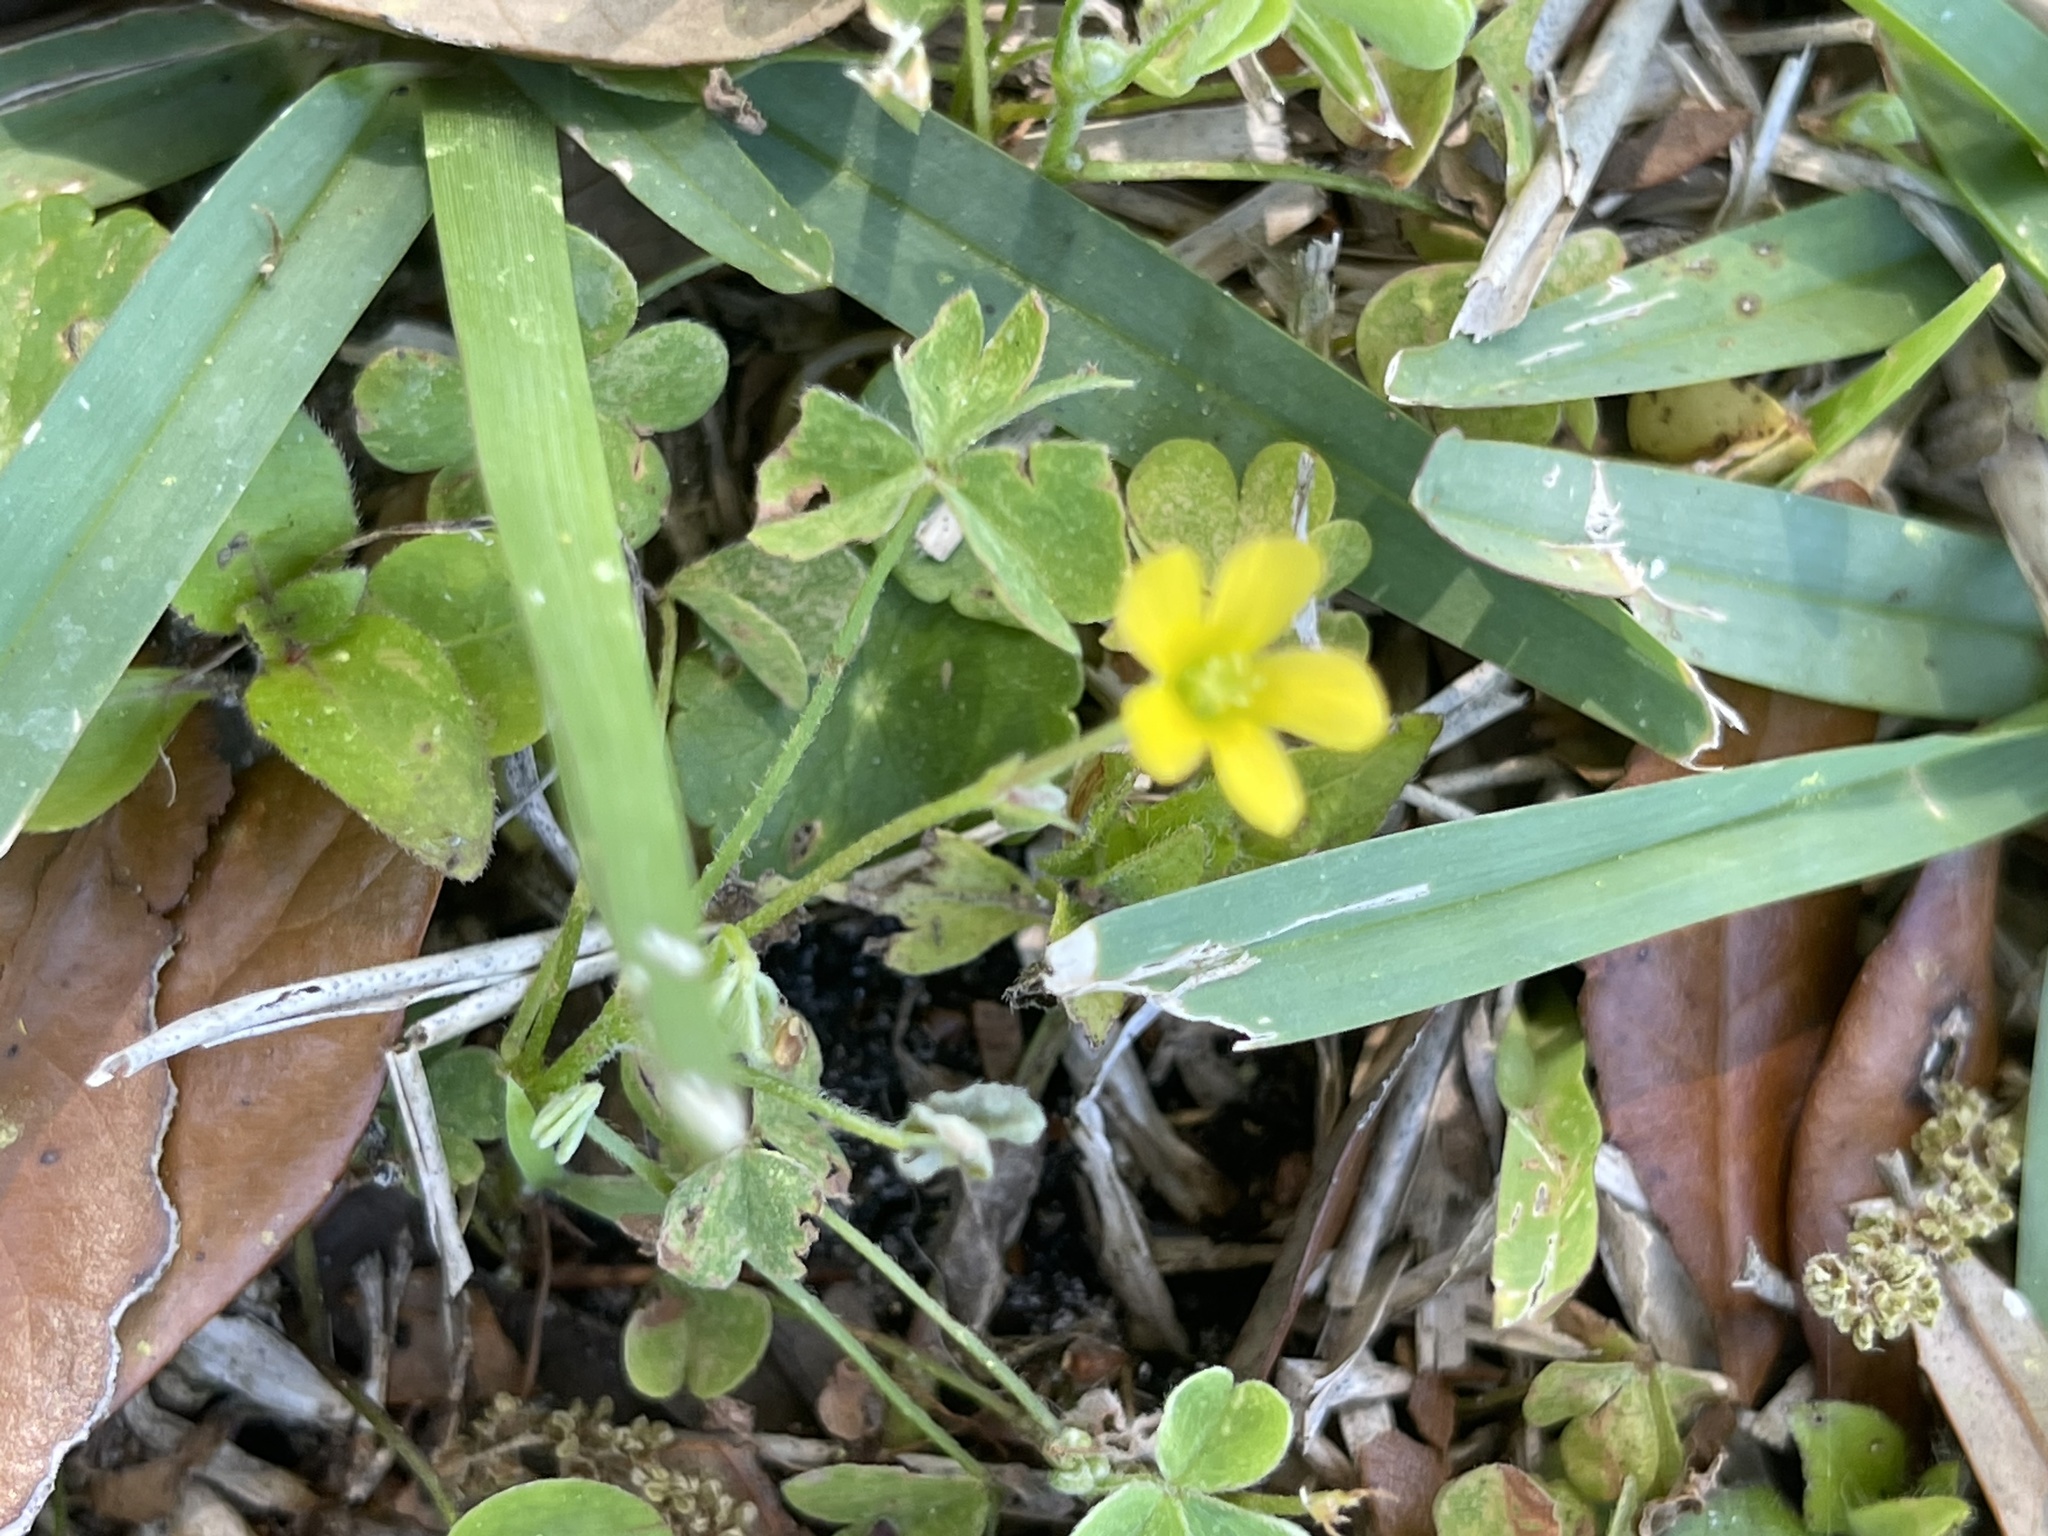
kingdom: Plantae
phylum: Tracheophyta
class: Magnoliopsida
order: Oxalidales
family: Oxalidaceae
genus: Oxalis
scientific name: Oxalis corniculata
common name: Procumbent yellow-sorrel
